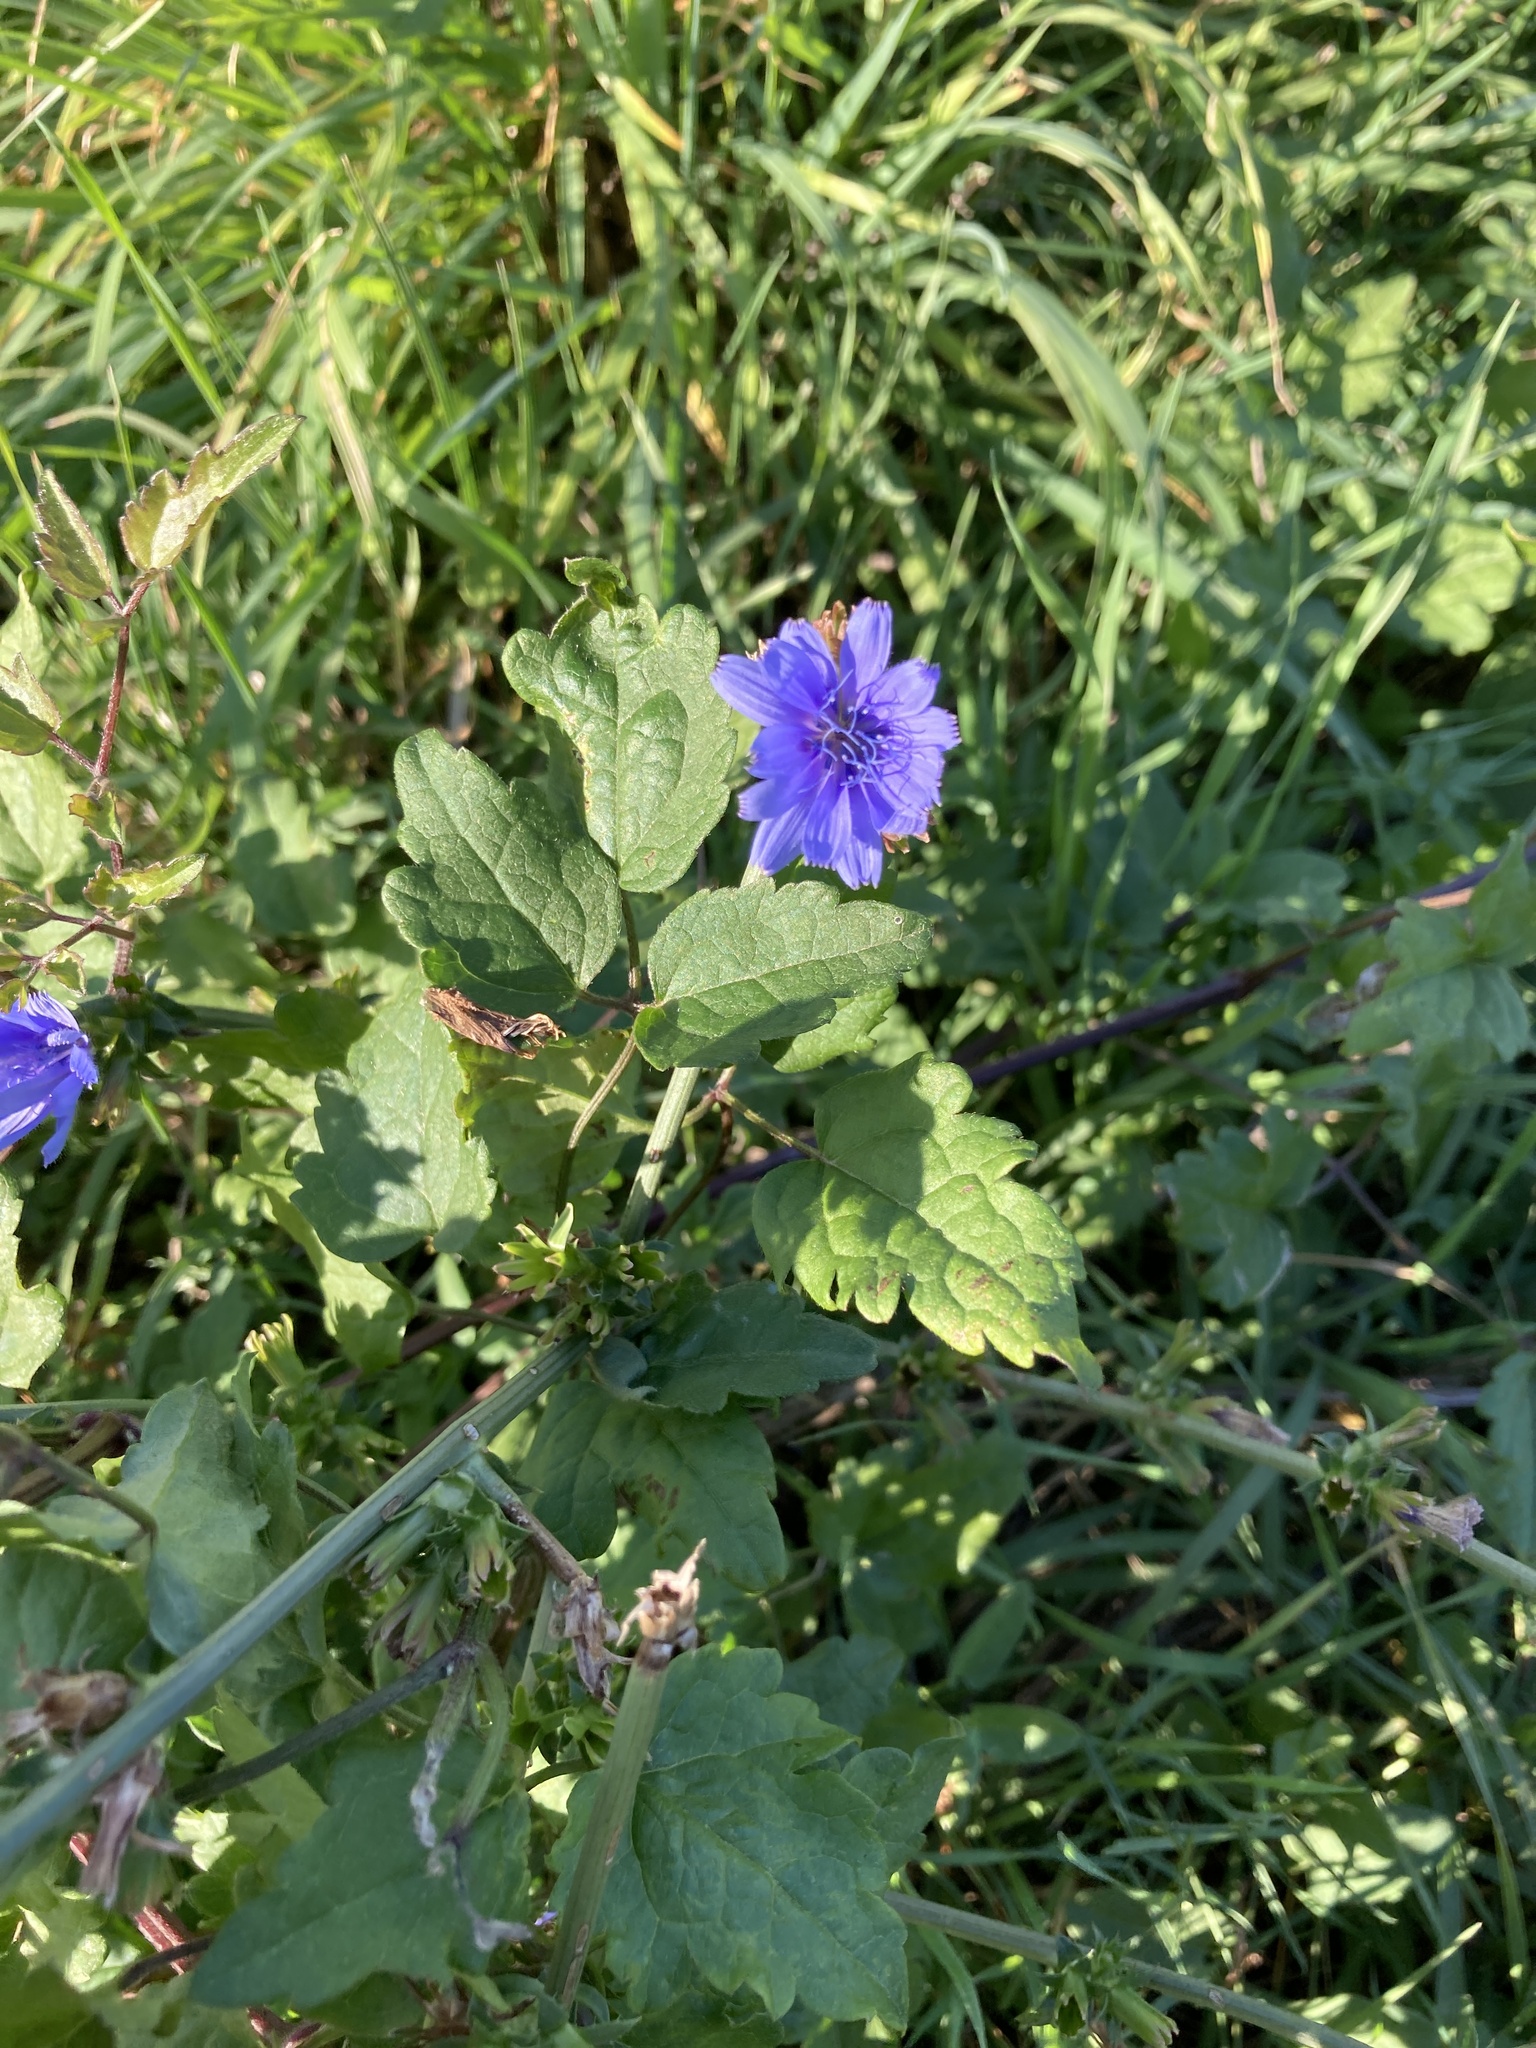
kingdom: Plantae
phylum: Tracheophyta
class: Magnoliopsida
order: Asterales
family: Asteraceae
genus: Cichorium
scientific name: Cichorium intybus
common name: Chicory
